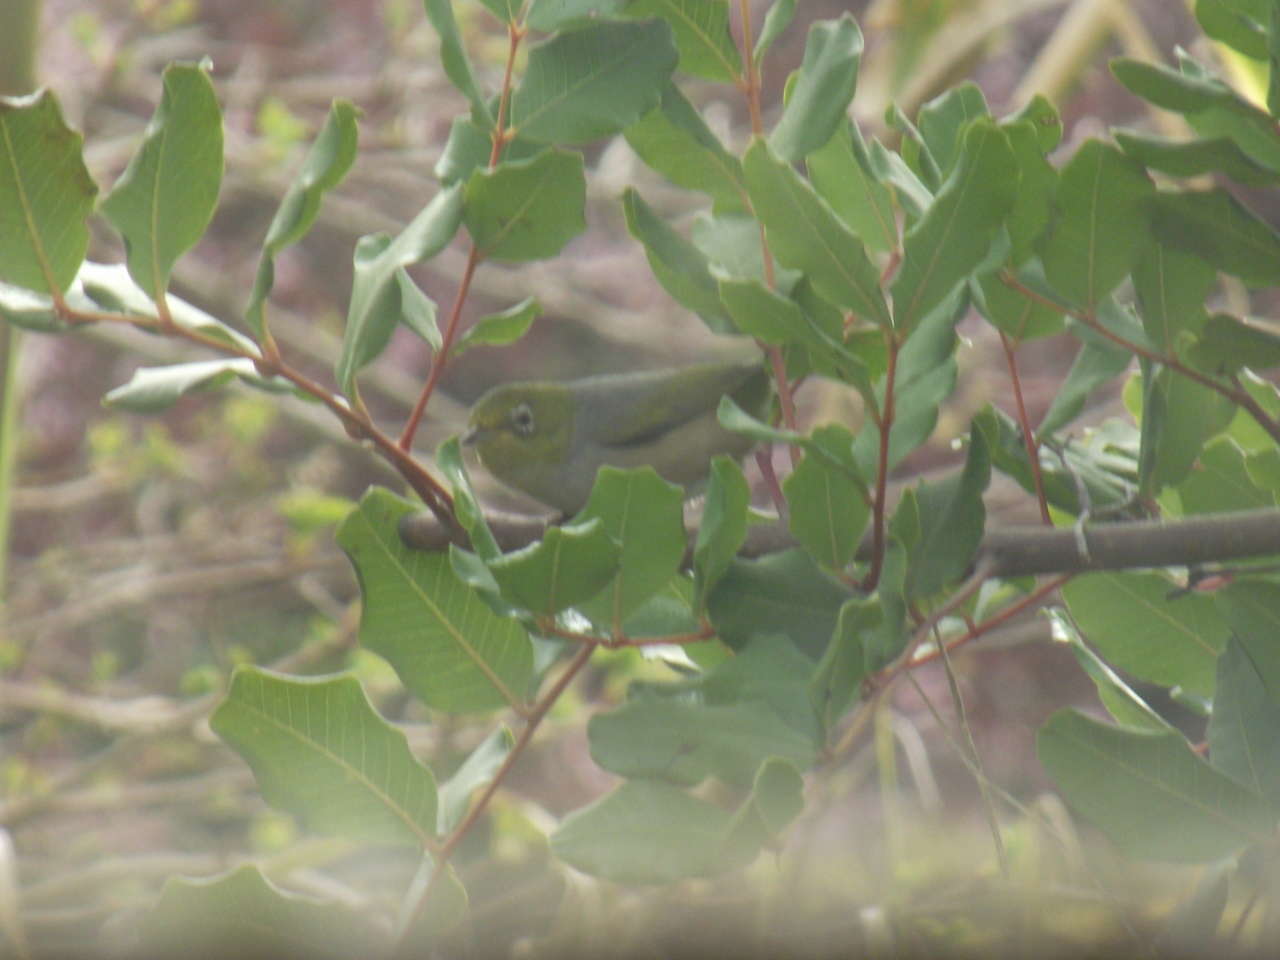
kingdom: Animalia
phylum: Chordata
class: Aves
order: Passeriformes
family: Zosteropidae
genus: Zosterops
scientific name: Zosterops lateralis
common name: Silvereye
